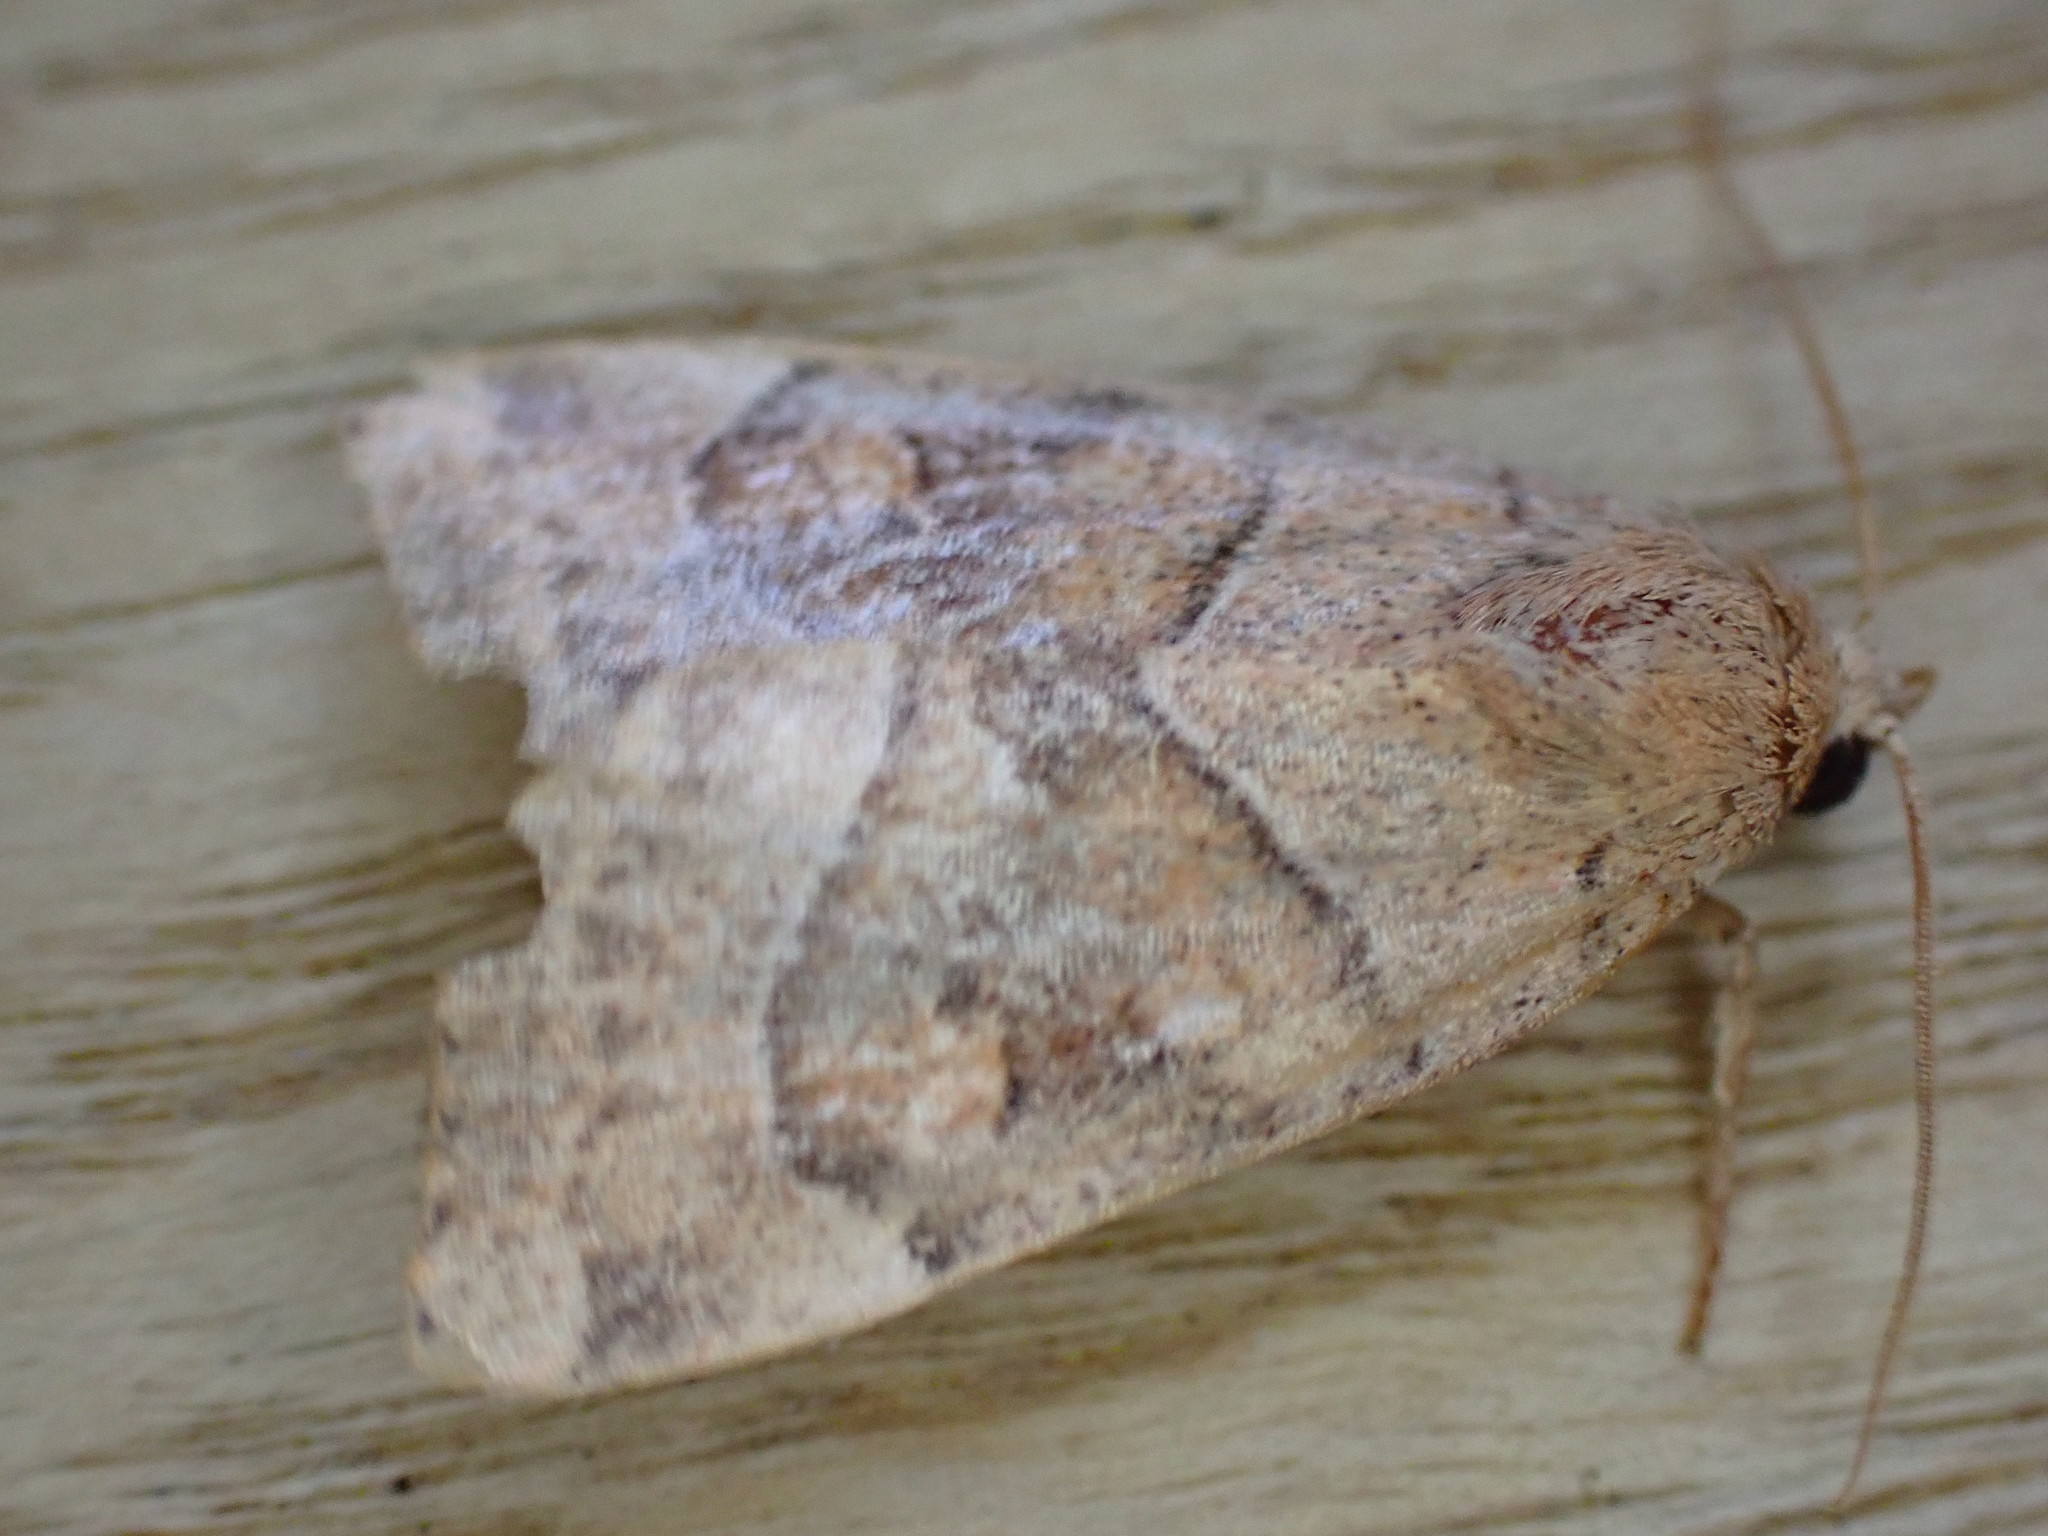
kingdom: Animalia
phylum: Arthropoda
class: Insecta
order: Lepidoptera
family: Noctuidae
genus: Cosmia
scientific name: Cosmia trapezina
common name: Dun-bar
